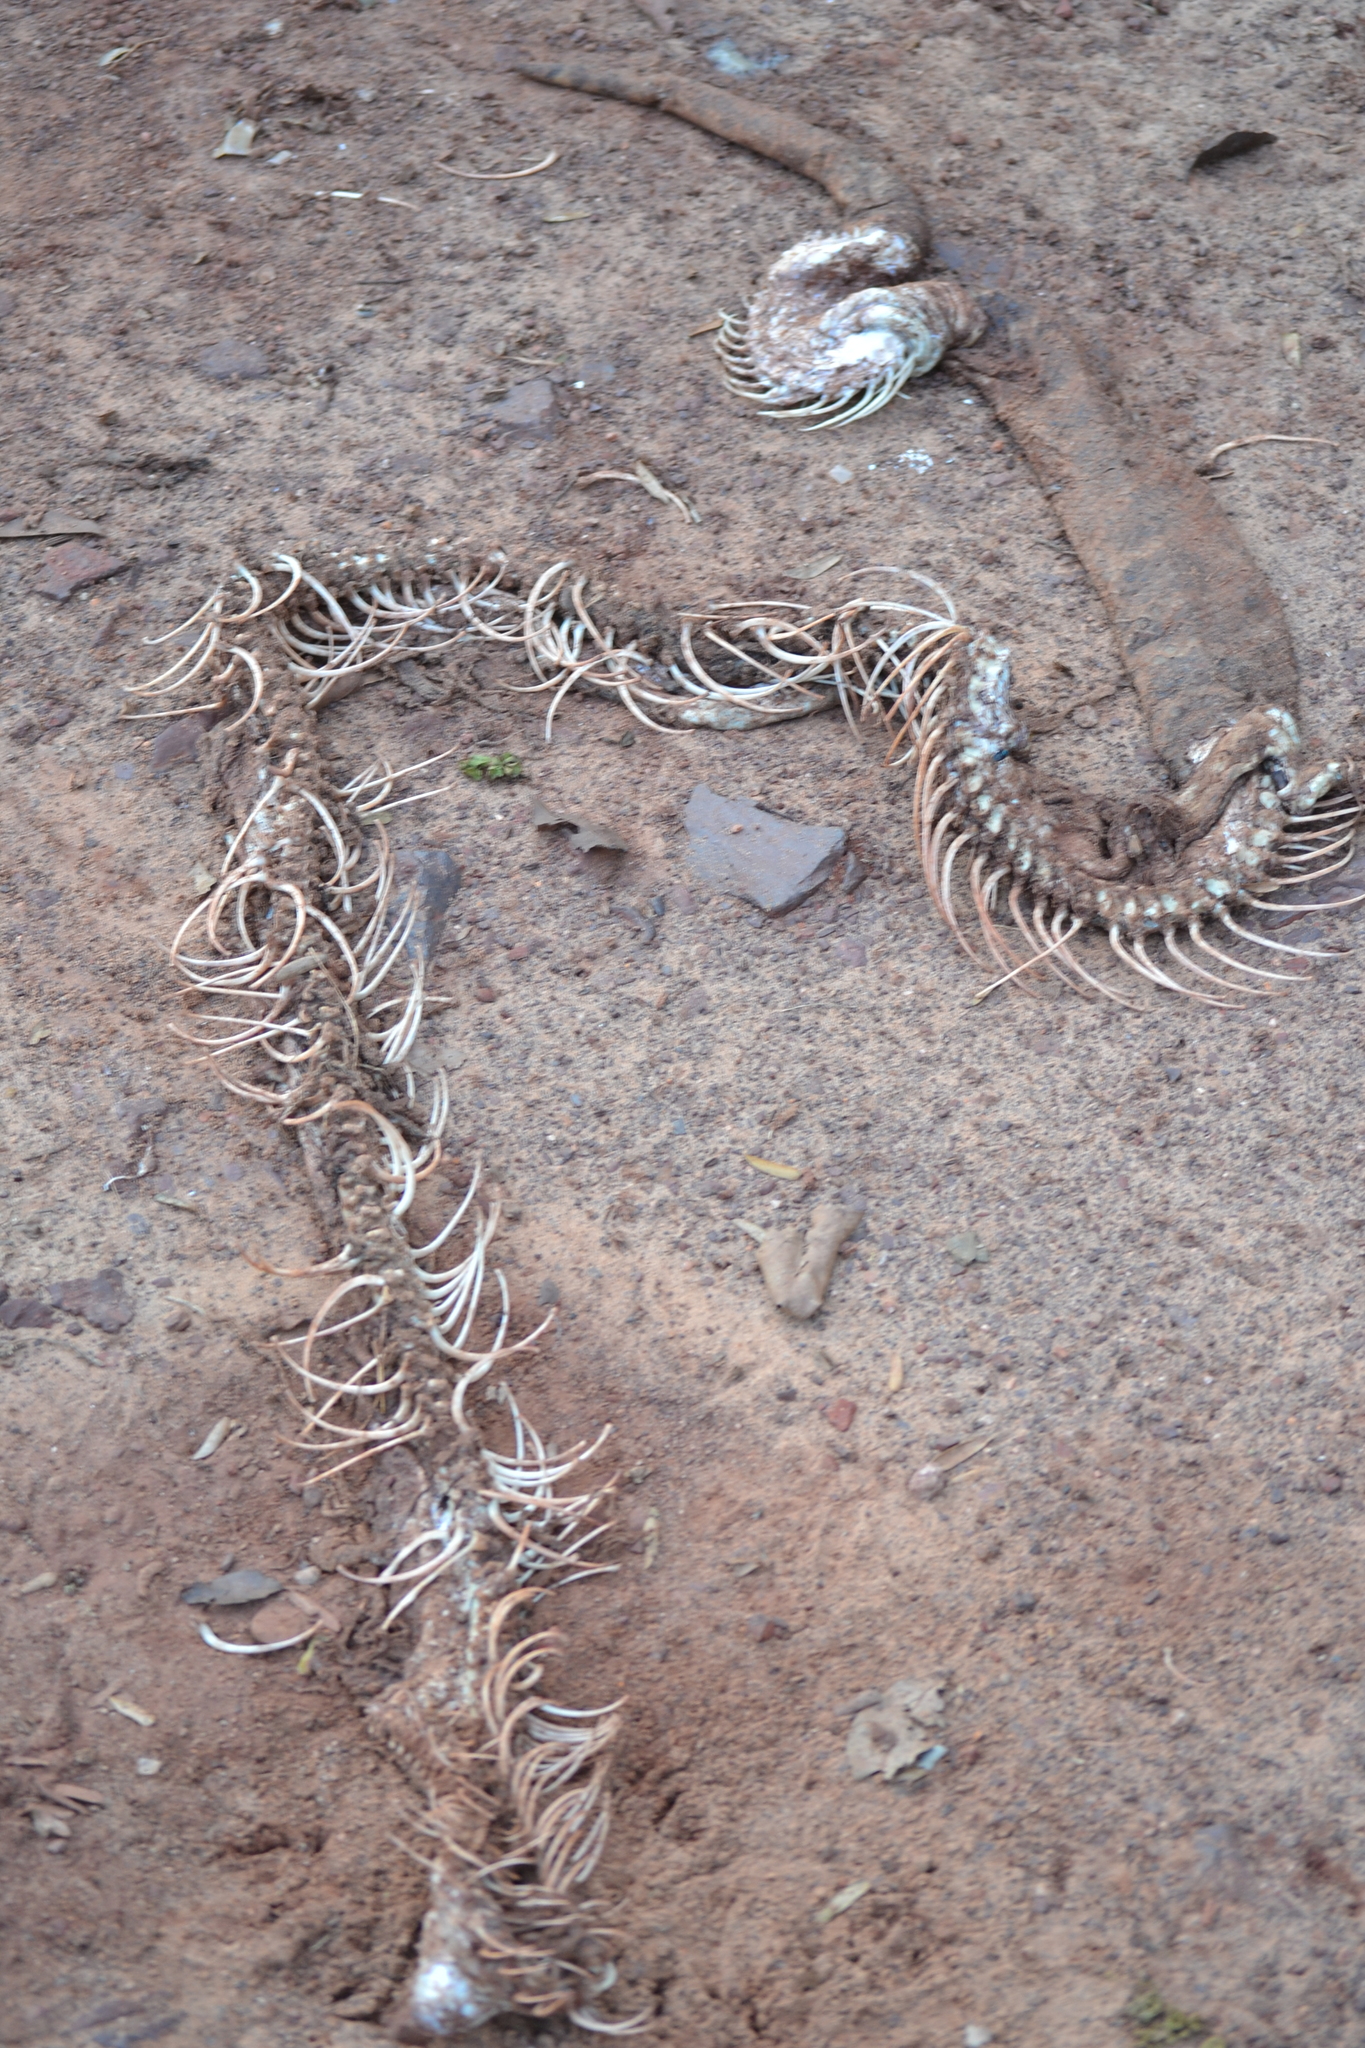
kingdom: Animalia
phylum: Chordata
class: Squamata
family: Boidae
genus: Boa
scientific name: Boa constrictor
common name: Boa constrictor
